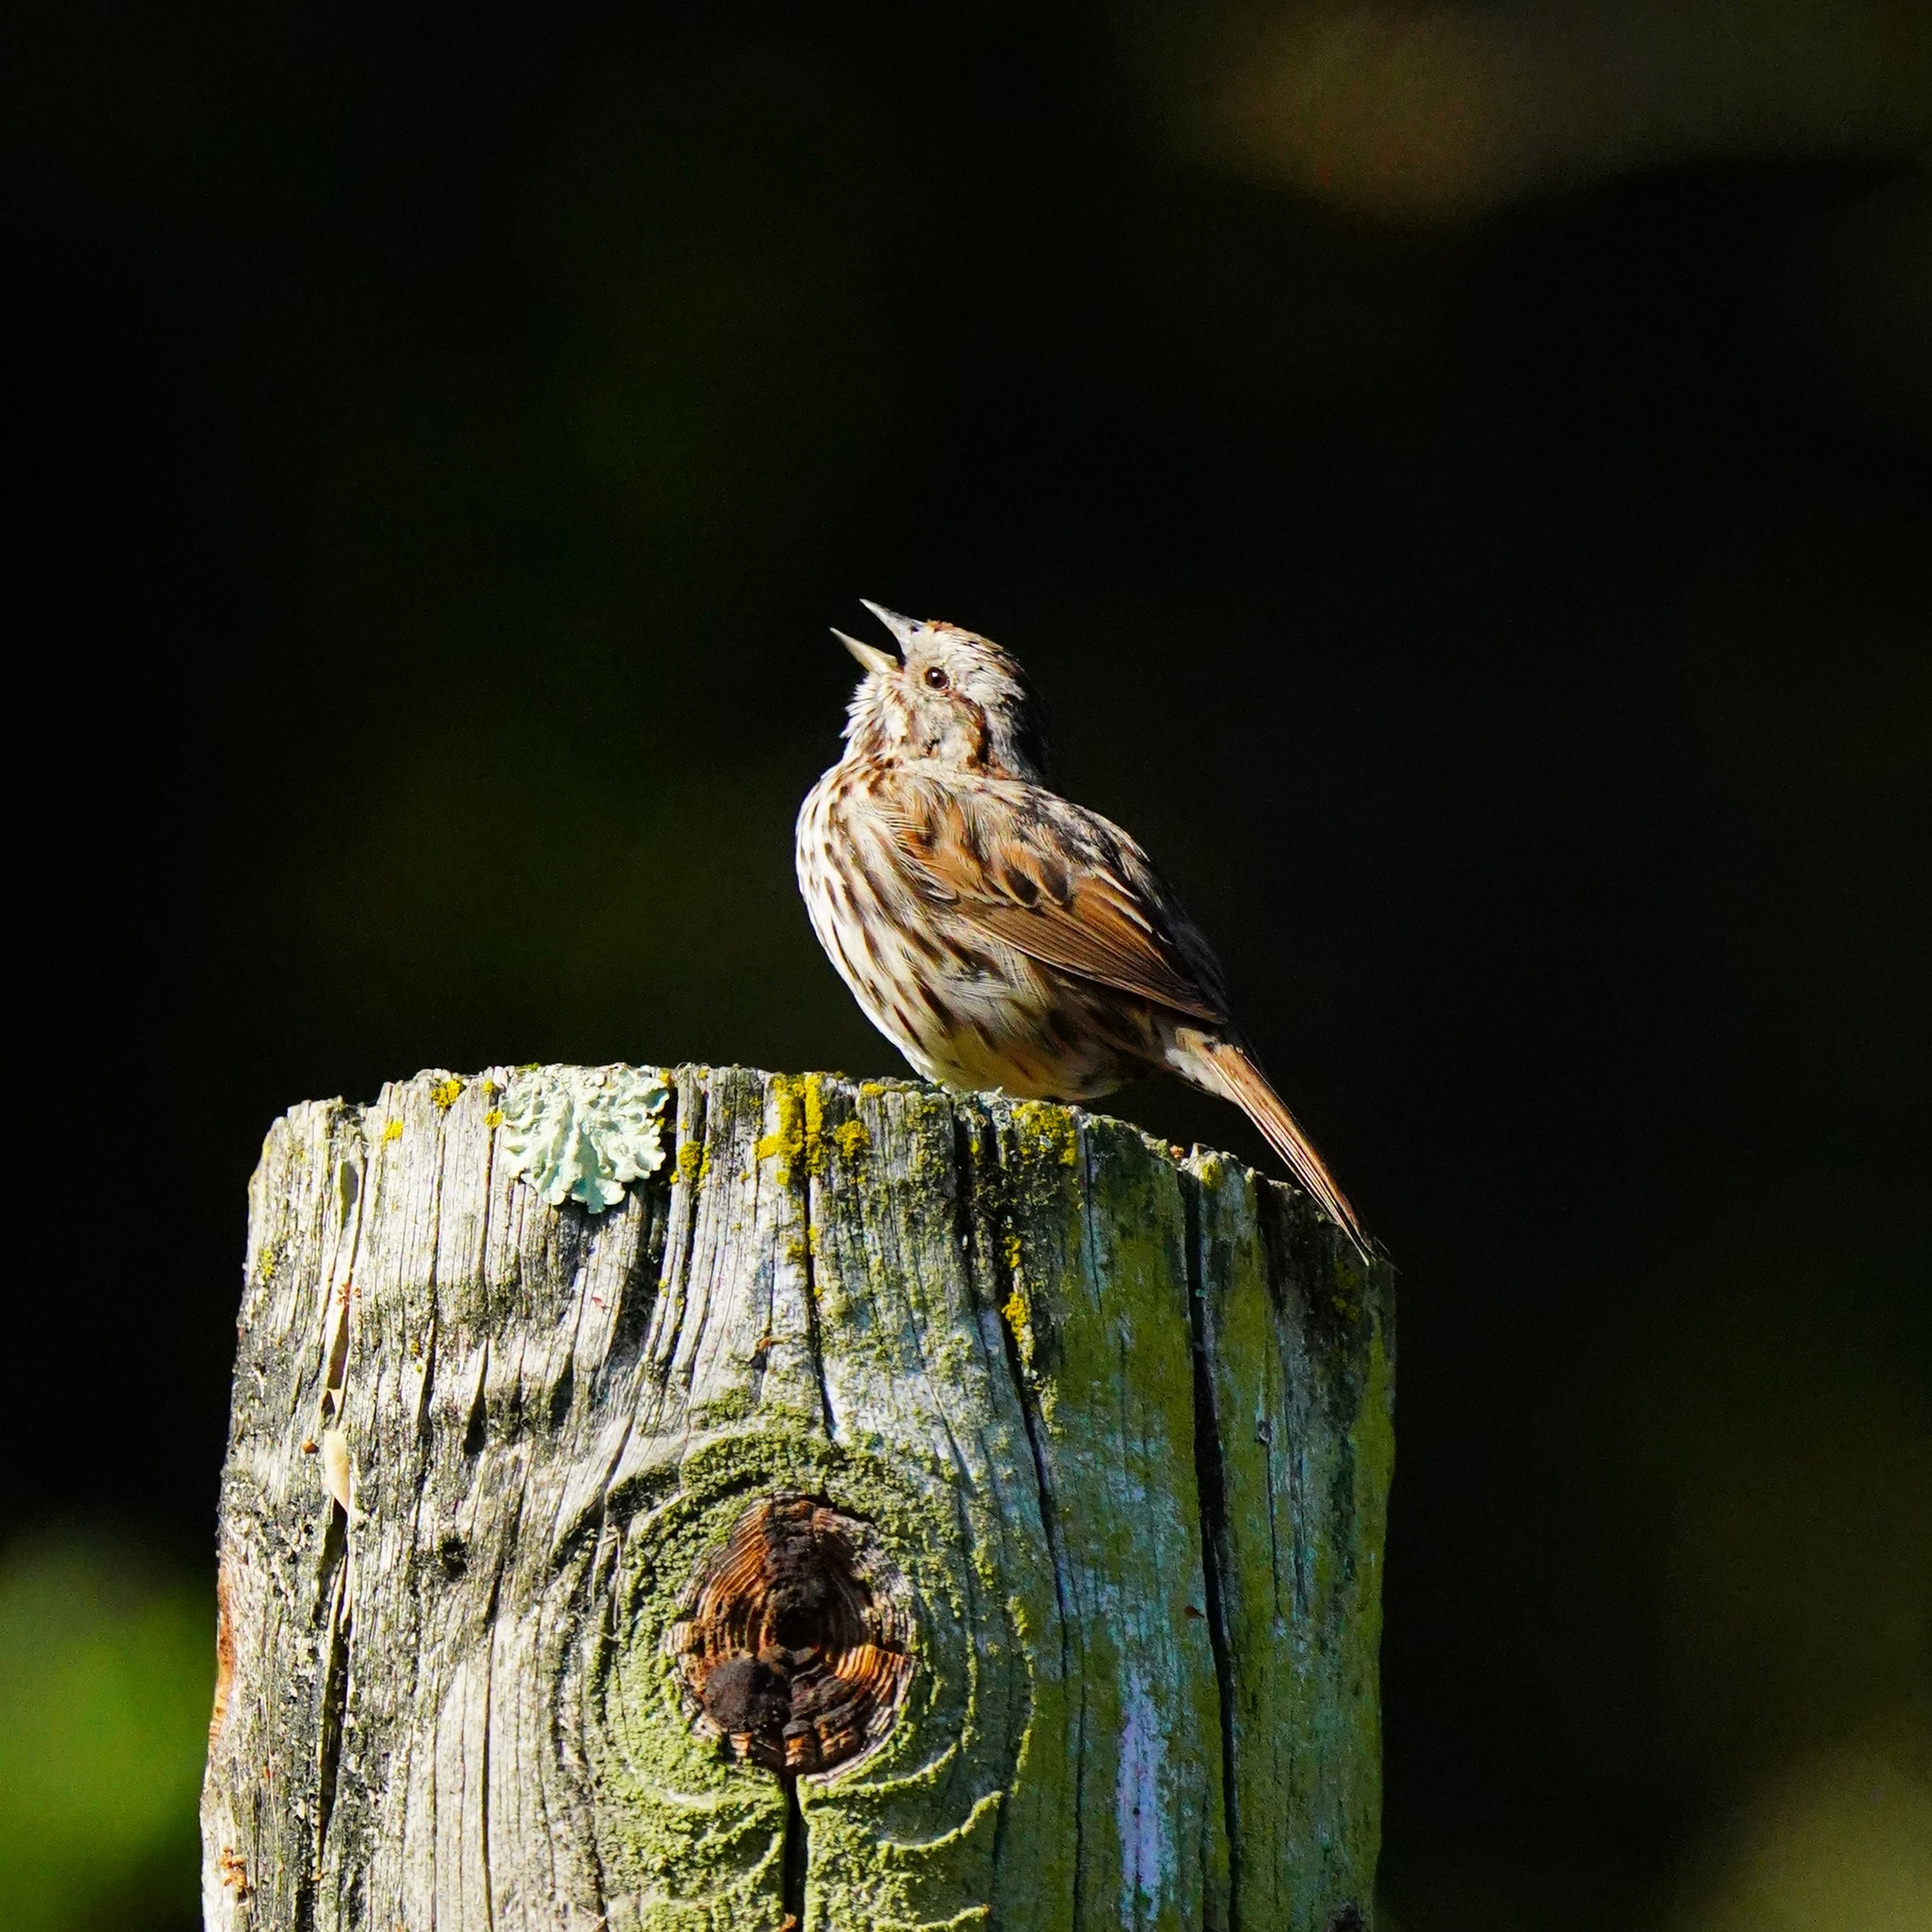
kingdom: Animalia
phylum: Chordata
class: Aves
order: Passeriformes
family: Passerellidae
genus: Melospiza
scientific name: Melospiza melodia
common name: Song sparrow
